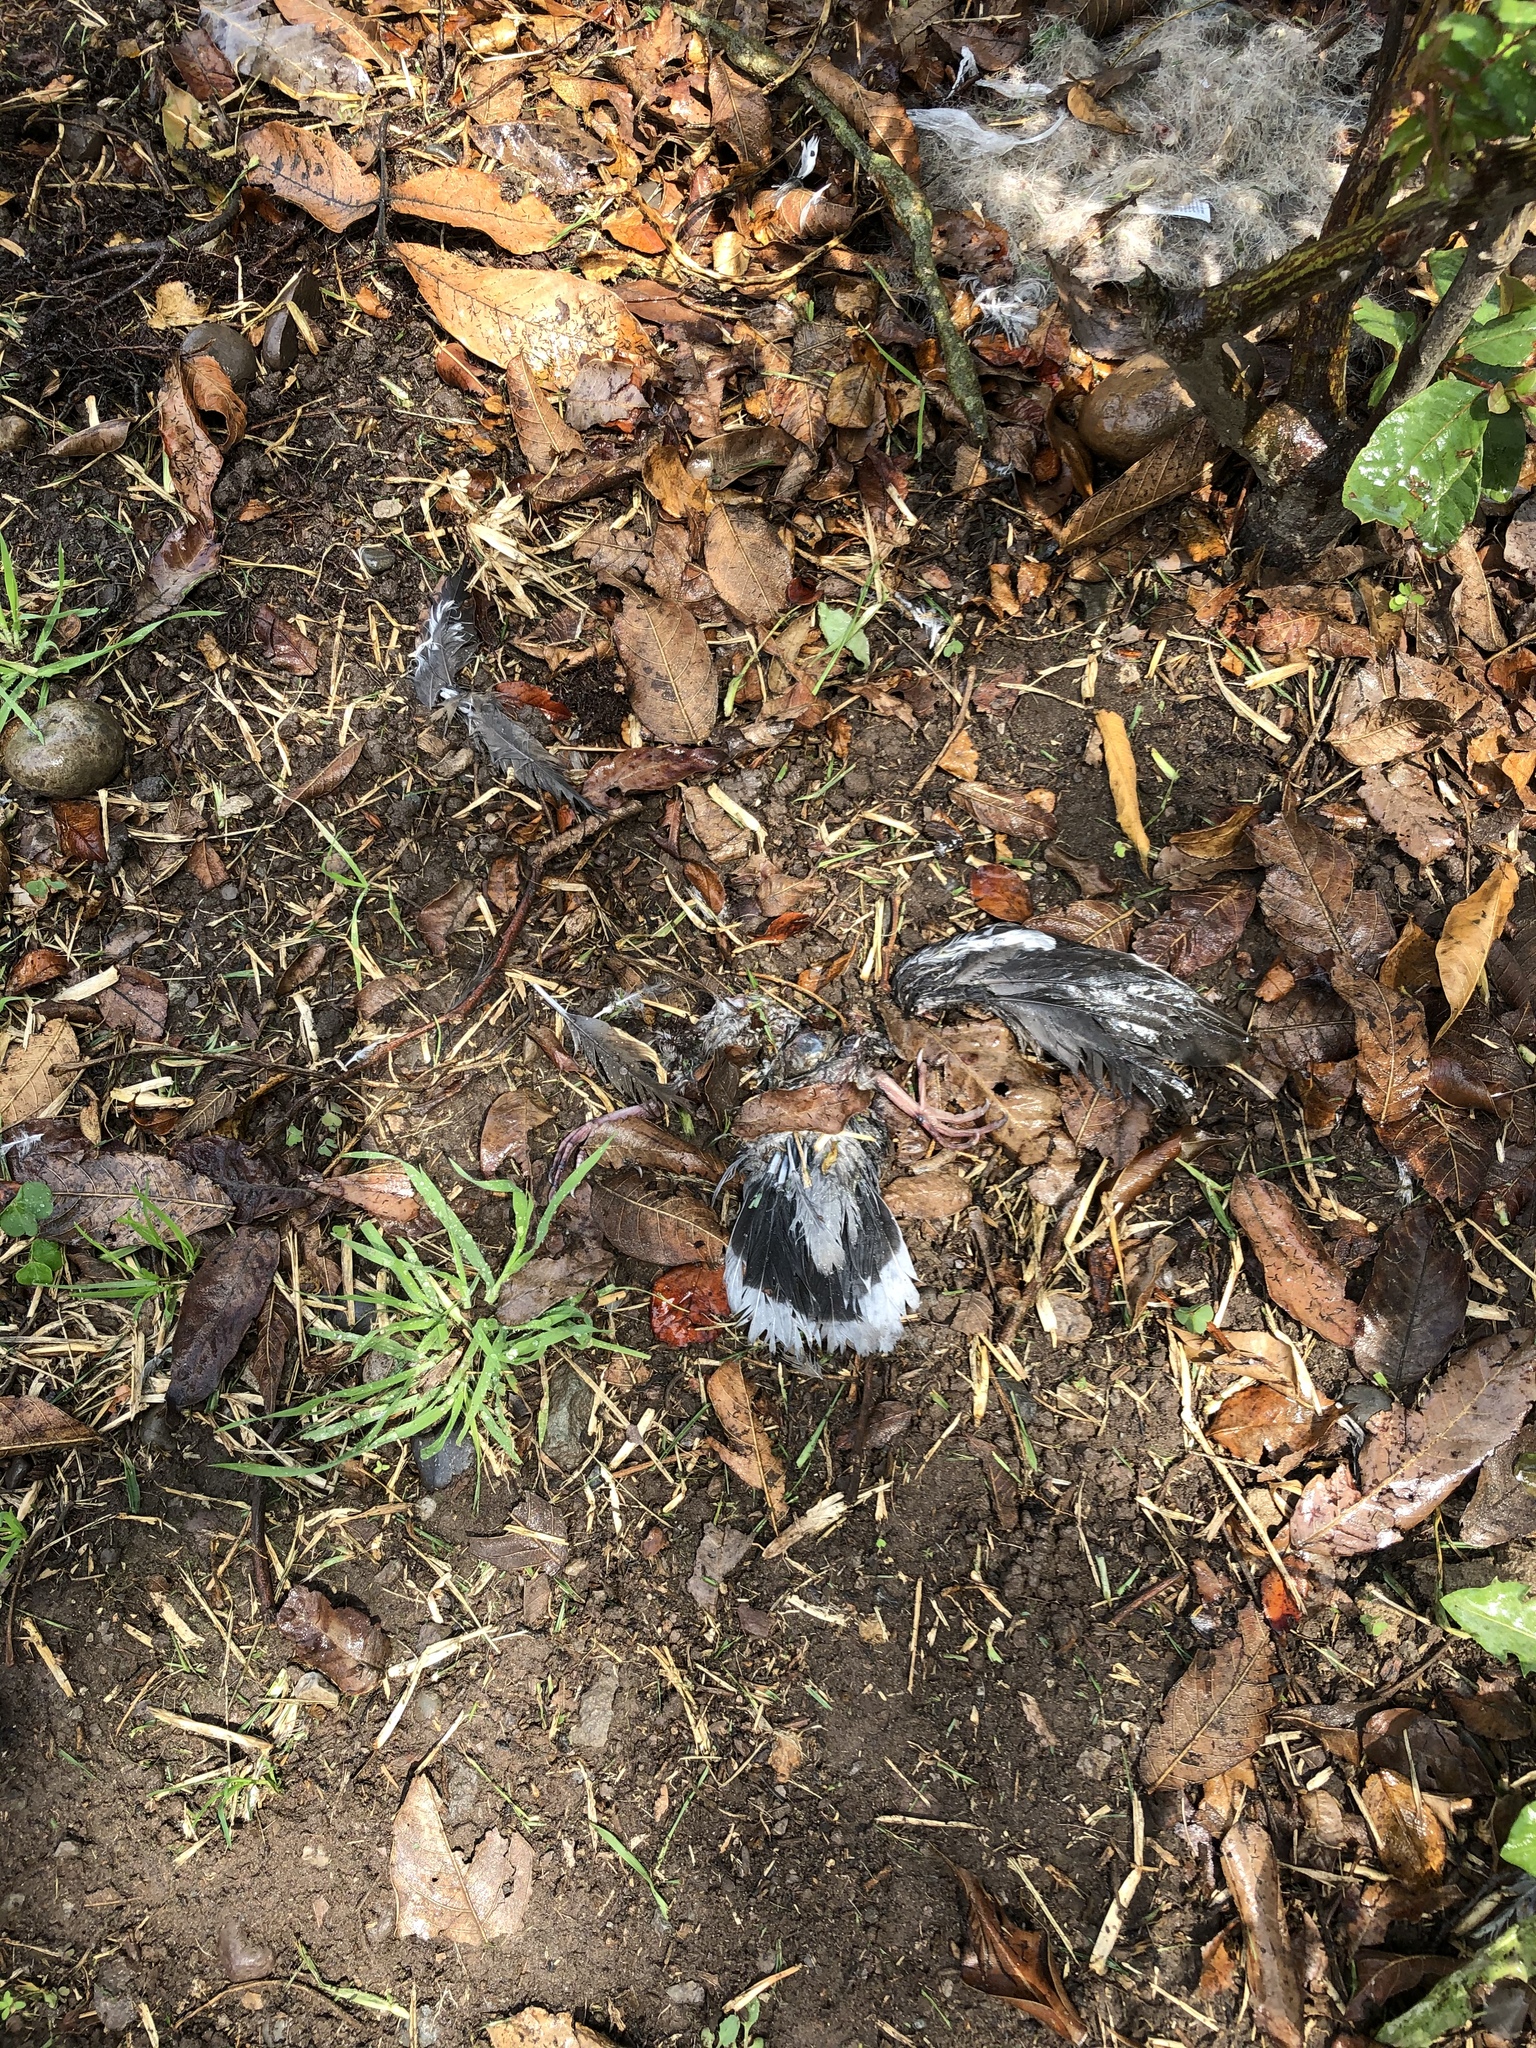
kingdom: Animalia
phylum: Chordata
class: Aves
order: Columbiformes
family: Columbidae
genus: Zenaida
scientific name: Zenaida meloda
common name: West peruvian dove
